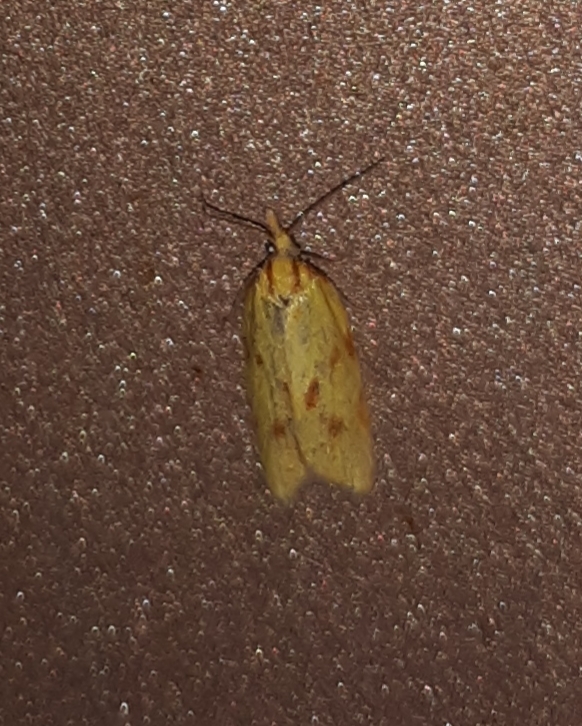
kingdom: Animalia
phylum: Arthropoda
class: Insecta
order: Lepidoptera
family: Tortricidae
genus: Sparganothis
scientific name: Sparganothis sulfureana
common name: Sparganothis fruitworm moth
